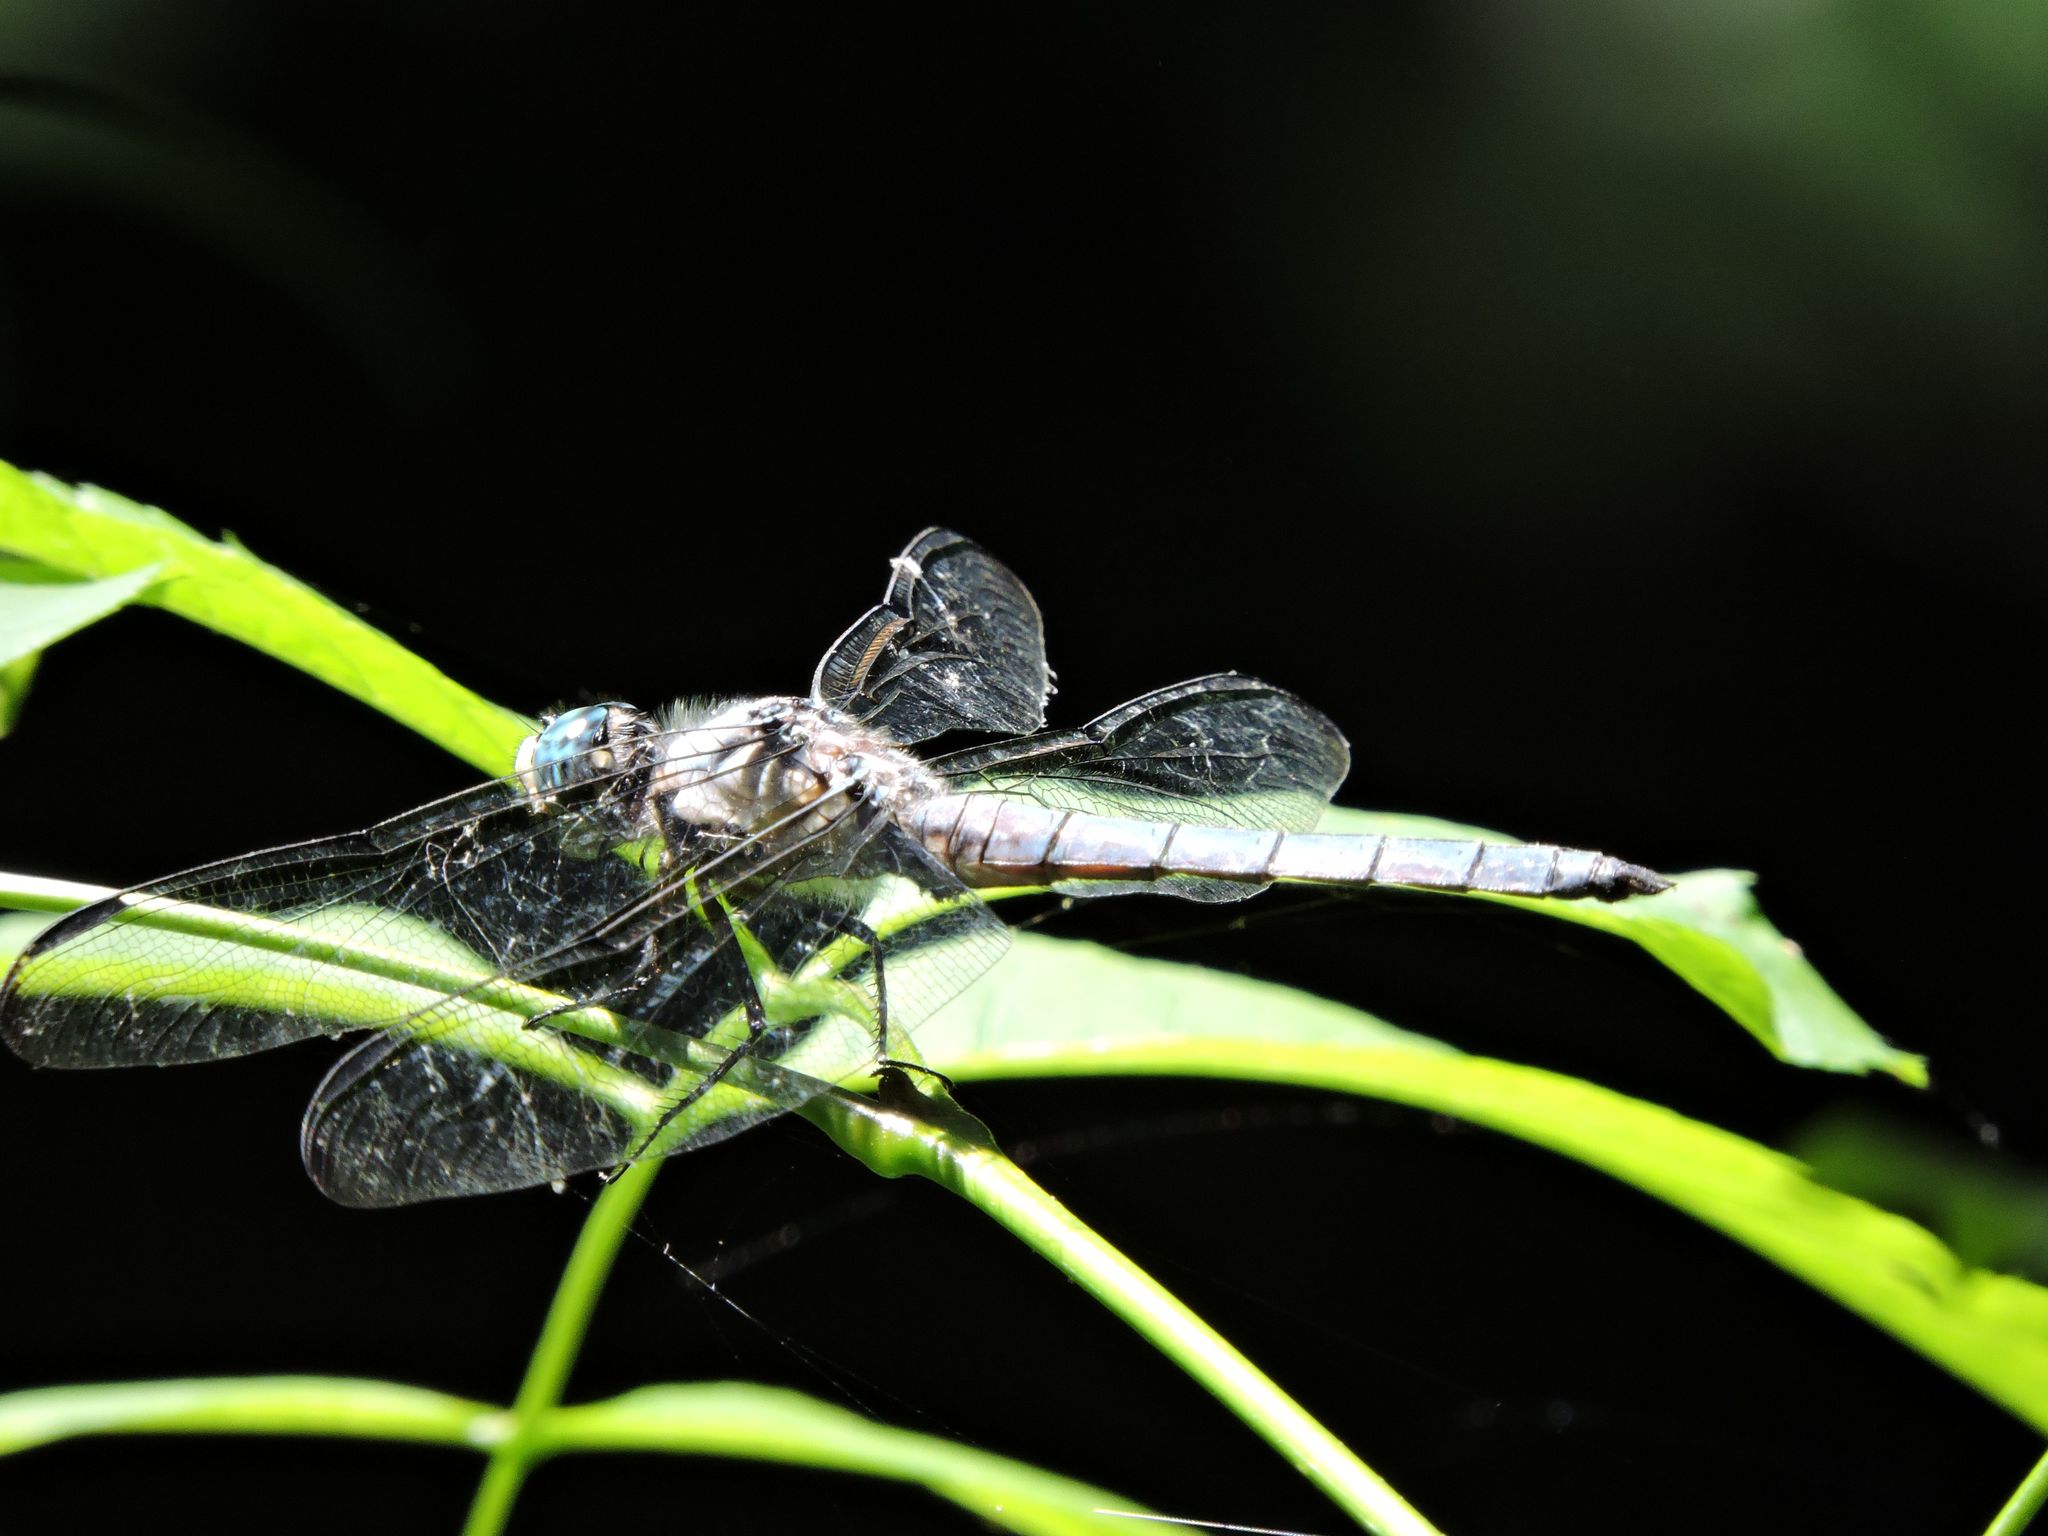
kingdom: Animalia
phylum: Arthropoda
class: Insecta
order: Odonata
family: Libellulidae
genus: Libellula
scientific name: Libellula vibrans
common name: Great blue skimmer
